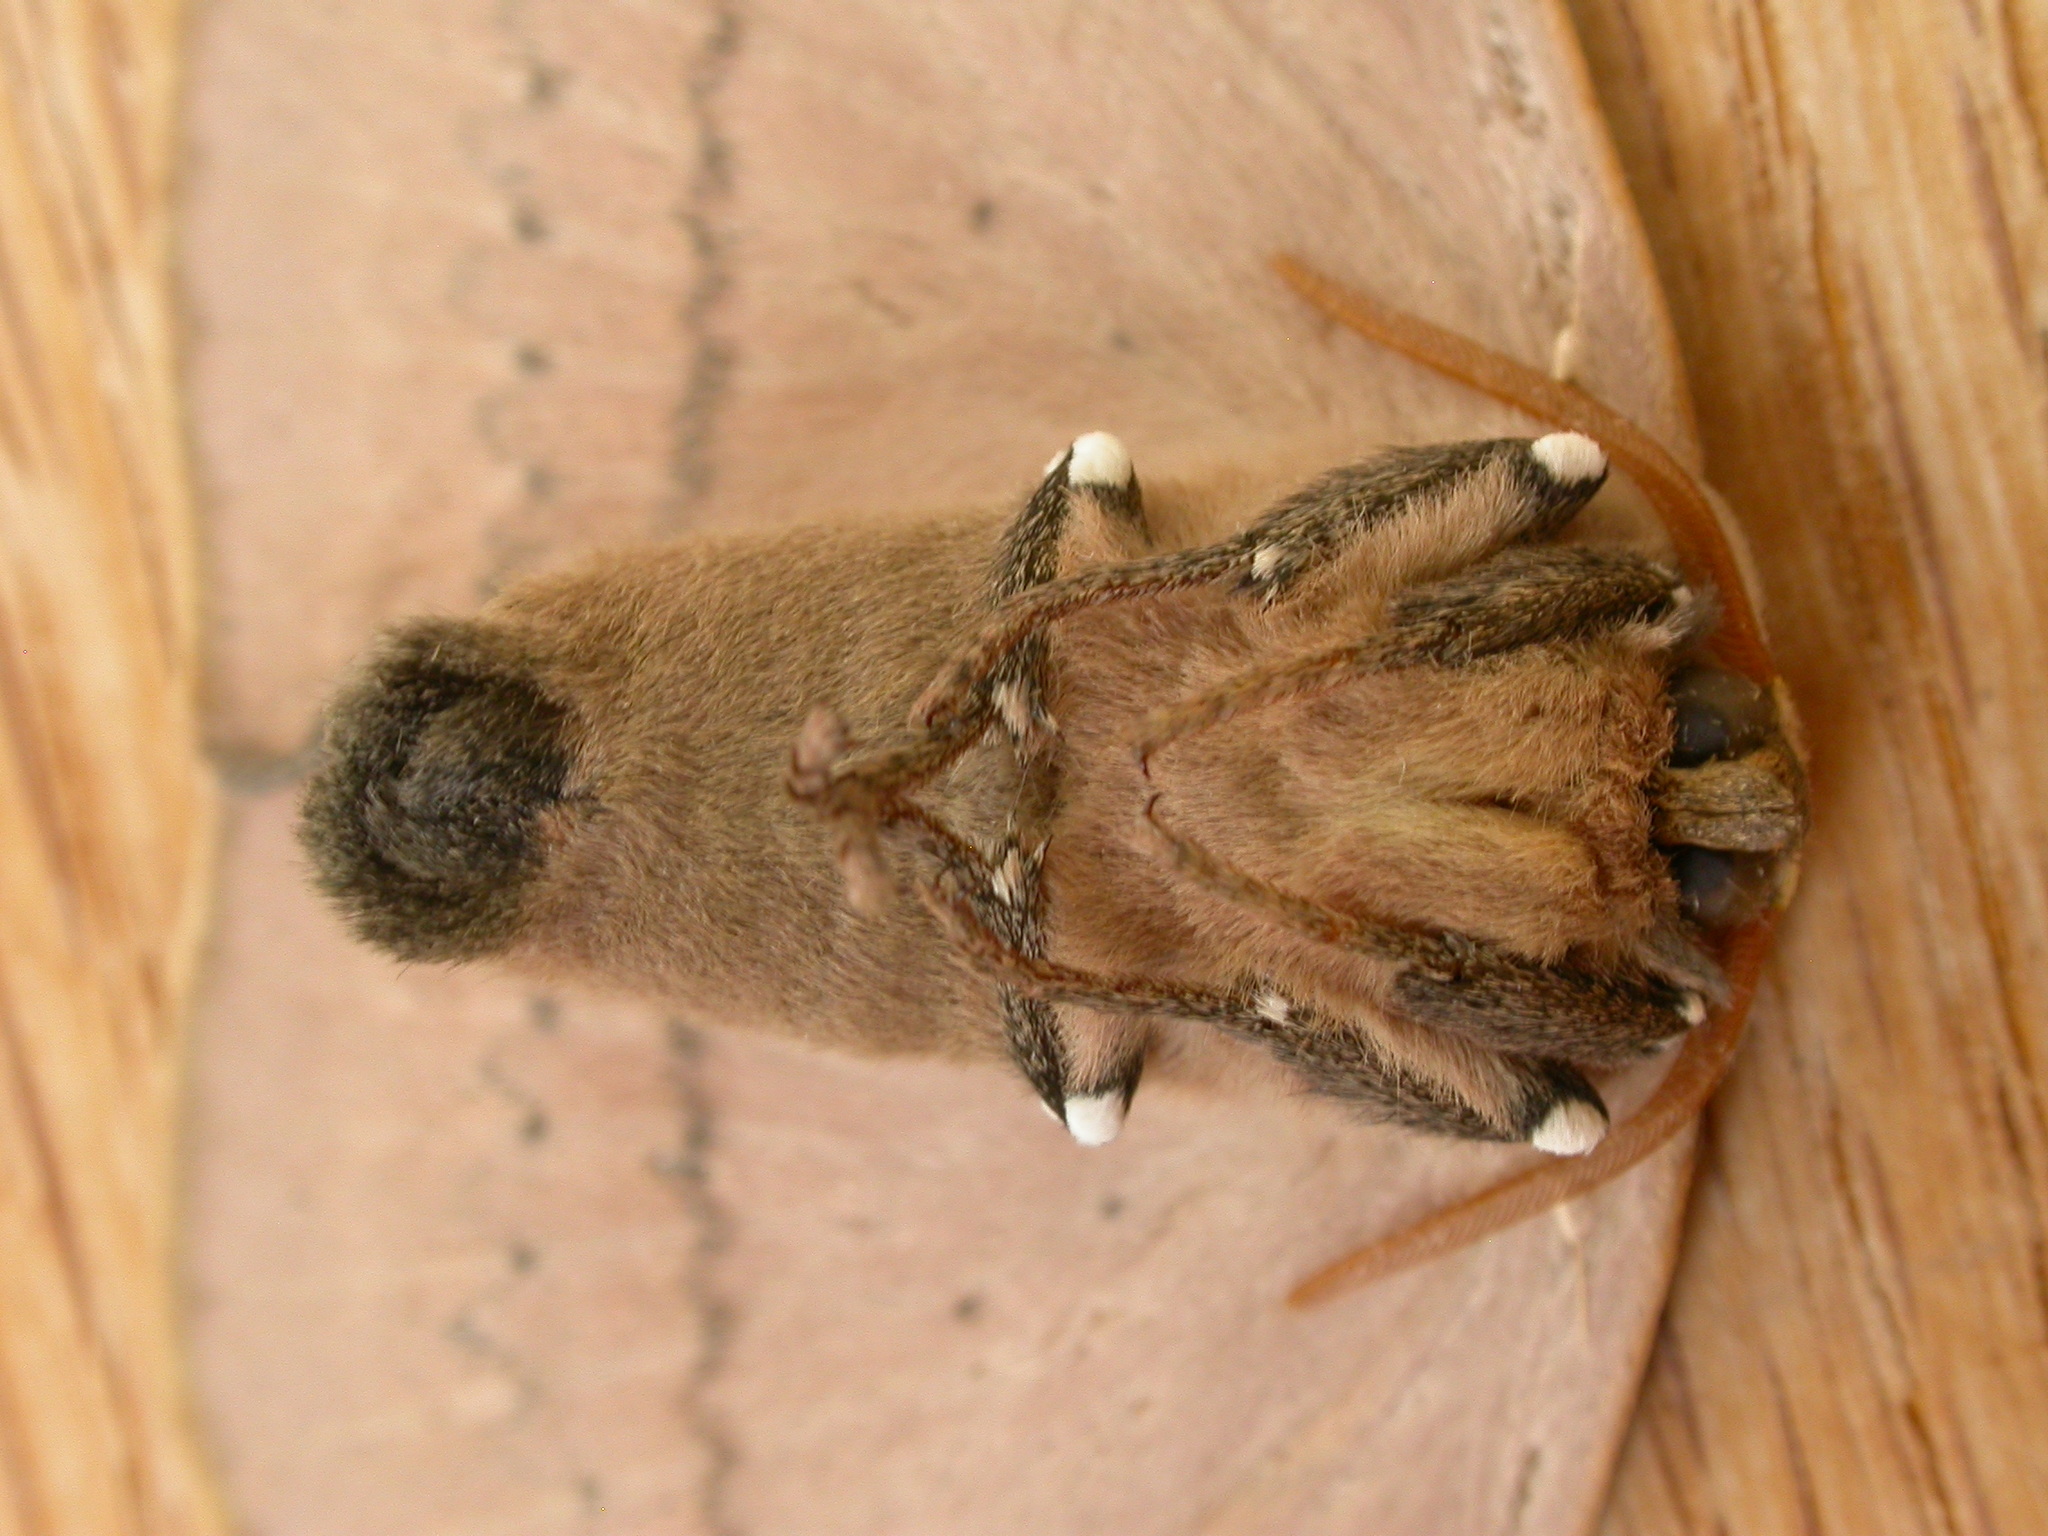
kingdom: Animalia
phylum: Arthropoda
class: Insecta
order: Lepidoptera
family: Anthelidae
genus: Anthela
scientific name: Anthela varia
